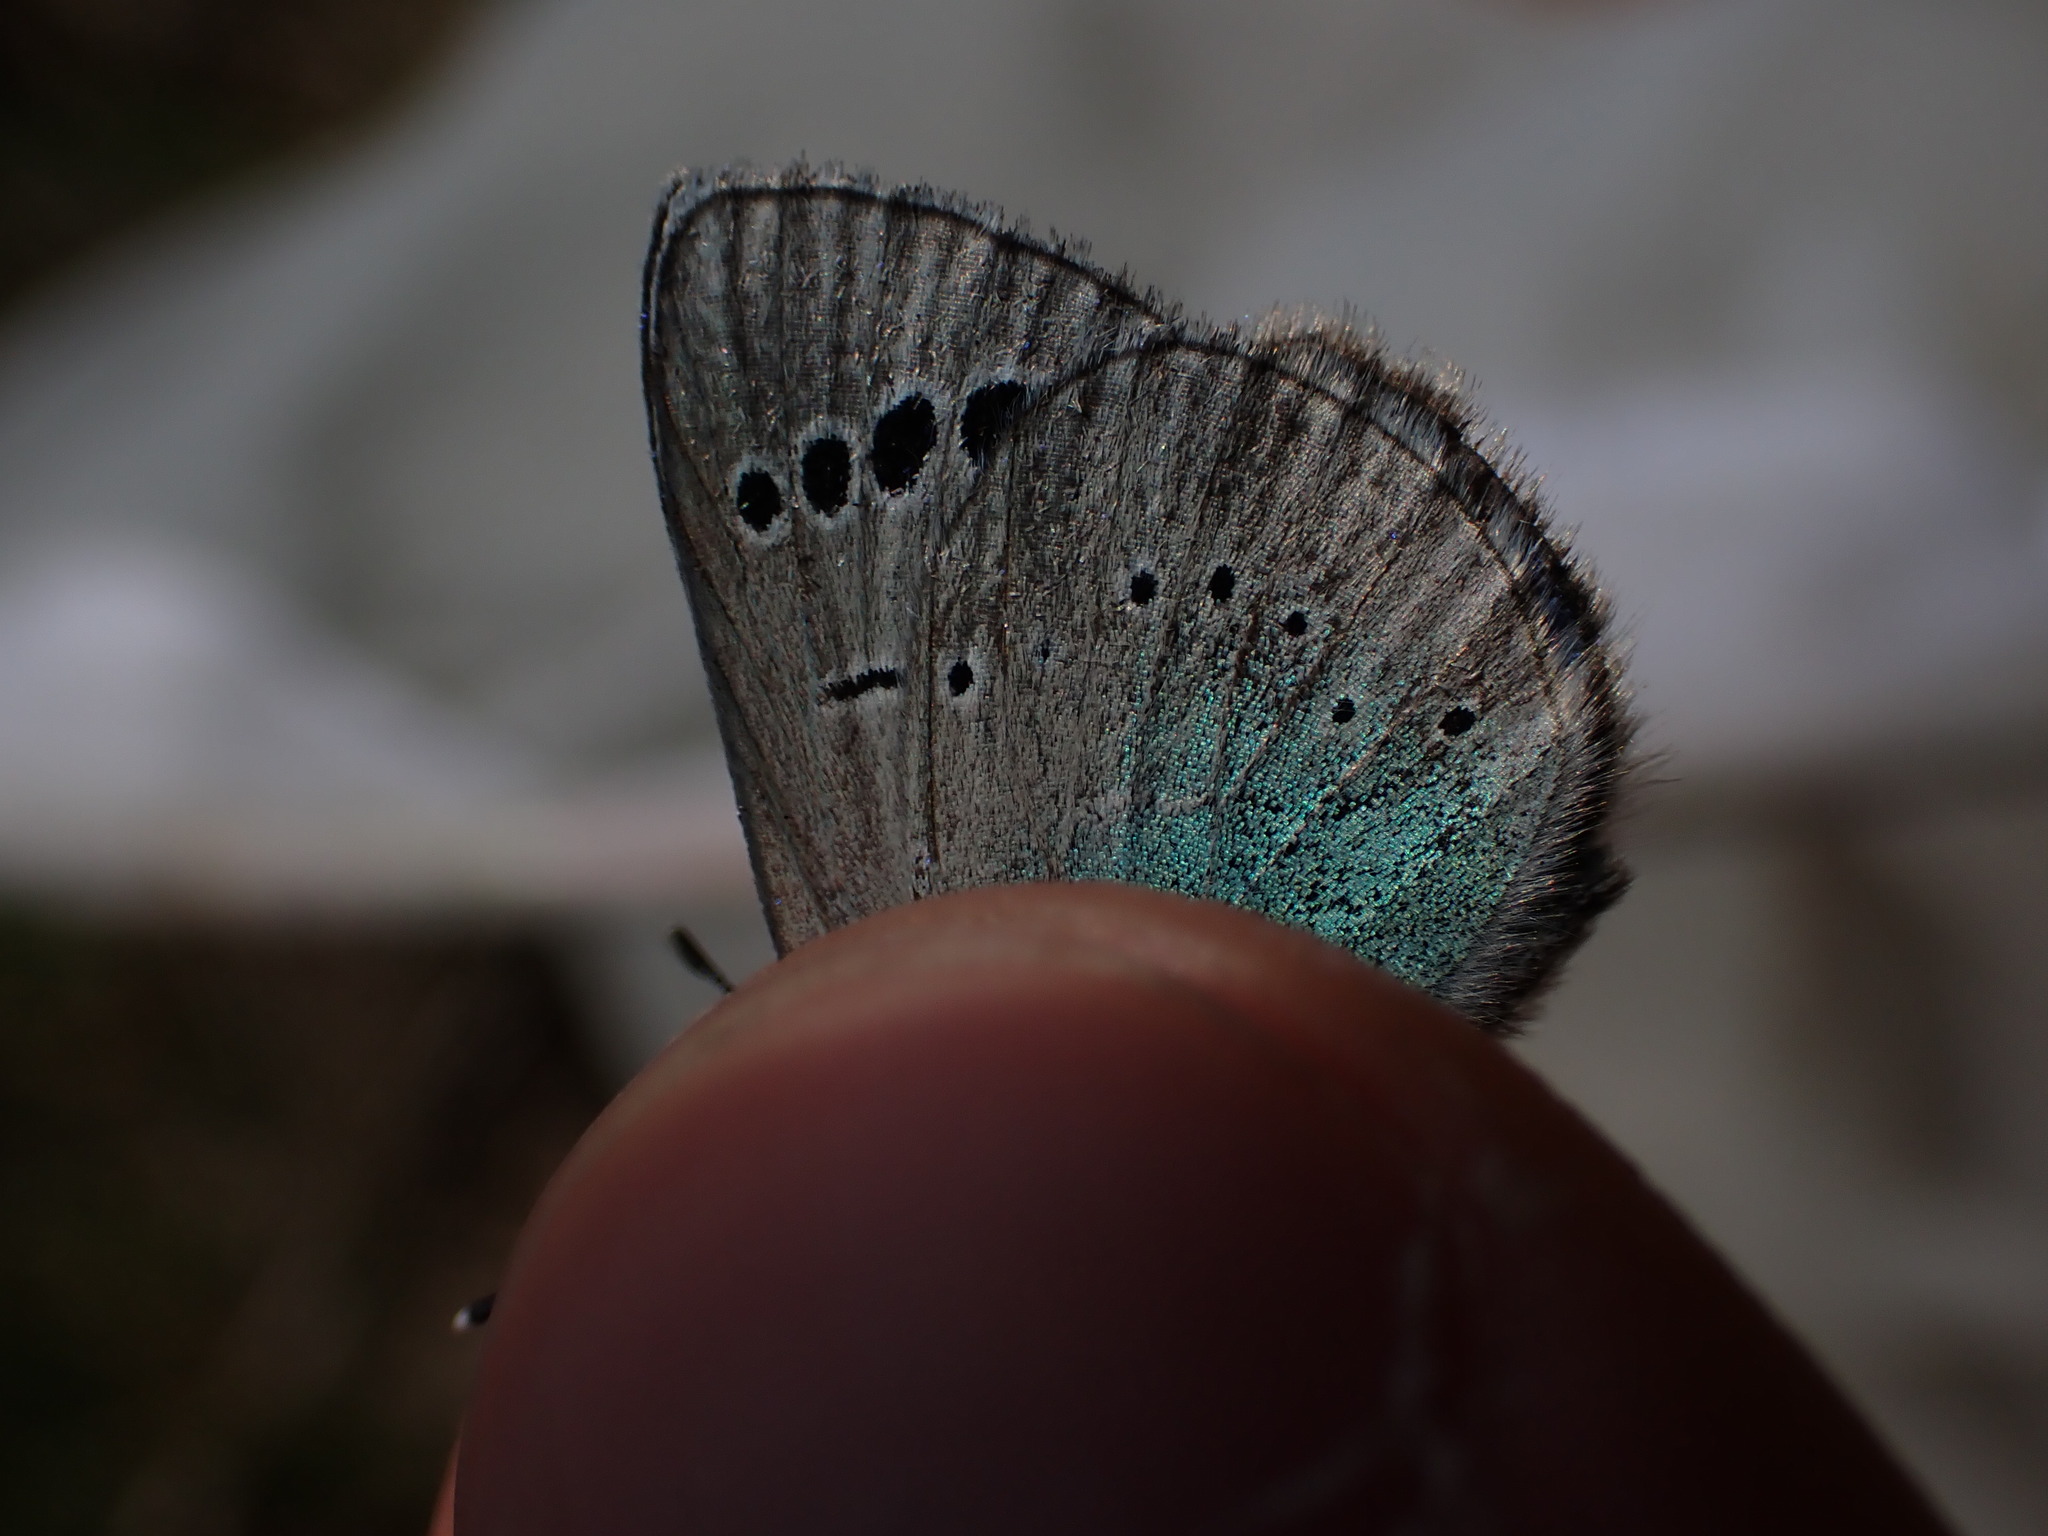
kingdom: Animalia
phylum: Arthropoda
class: Insecta
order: Lepidoptera
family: Lycaenidae
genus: Glaucopsyche
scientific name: Glaucopsyche alexis
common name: Green-underside blue
